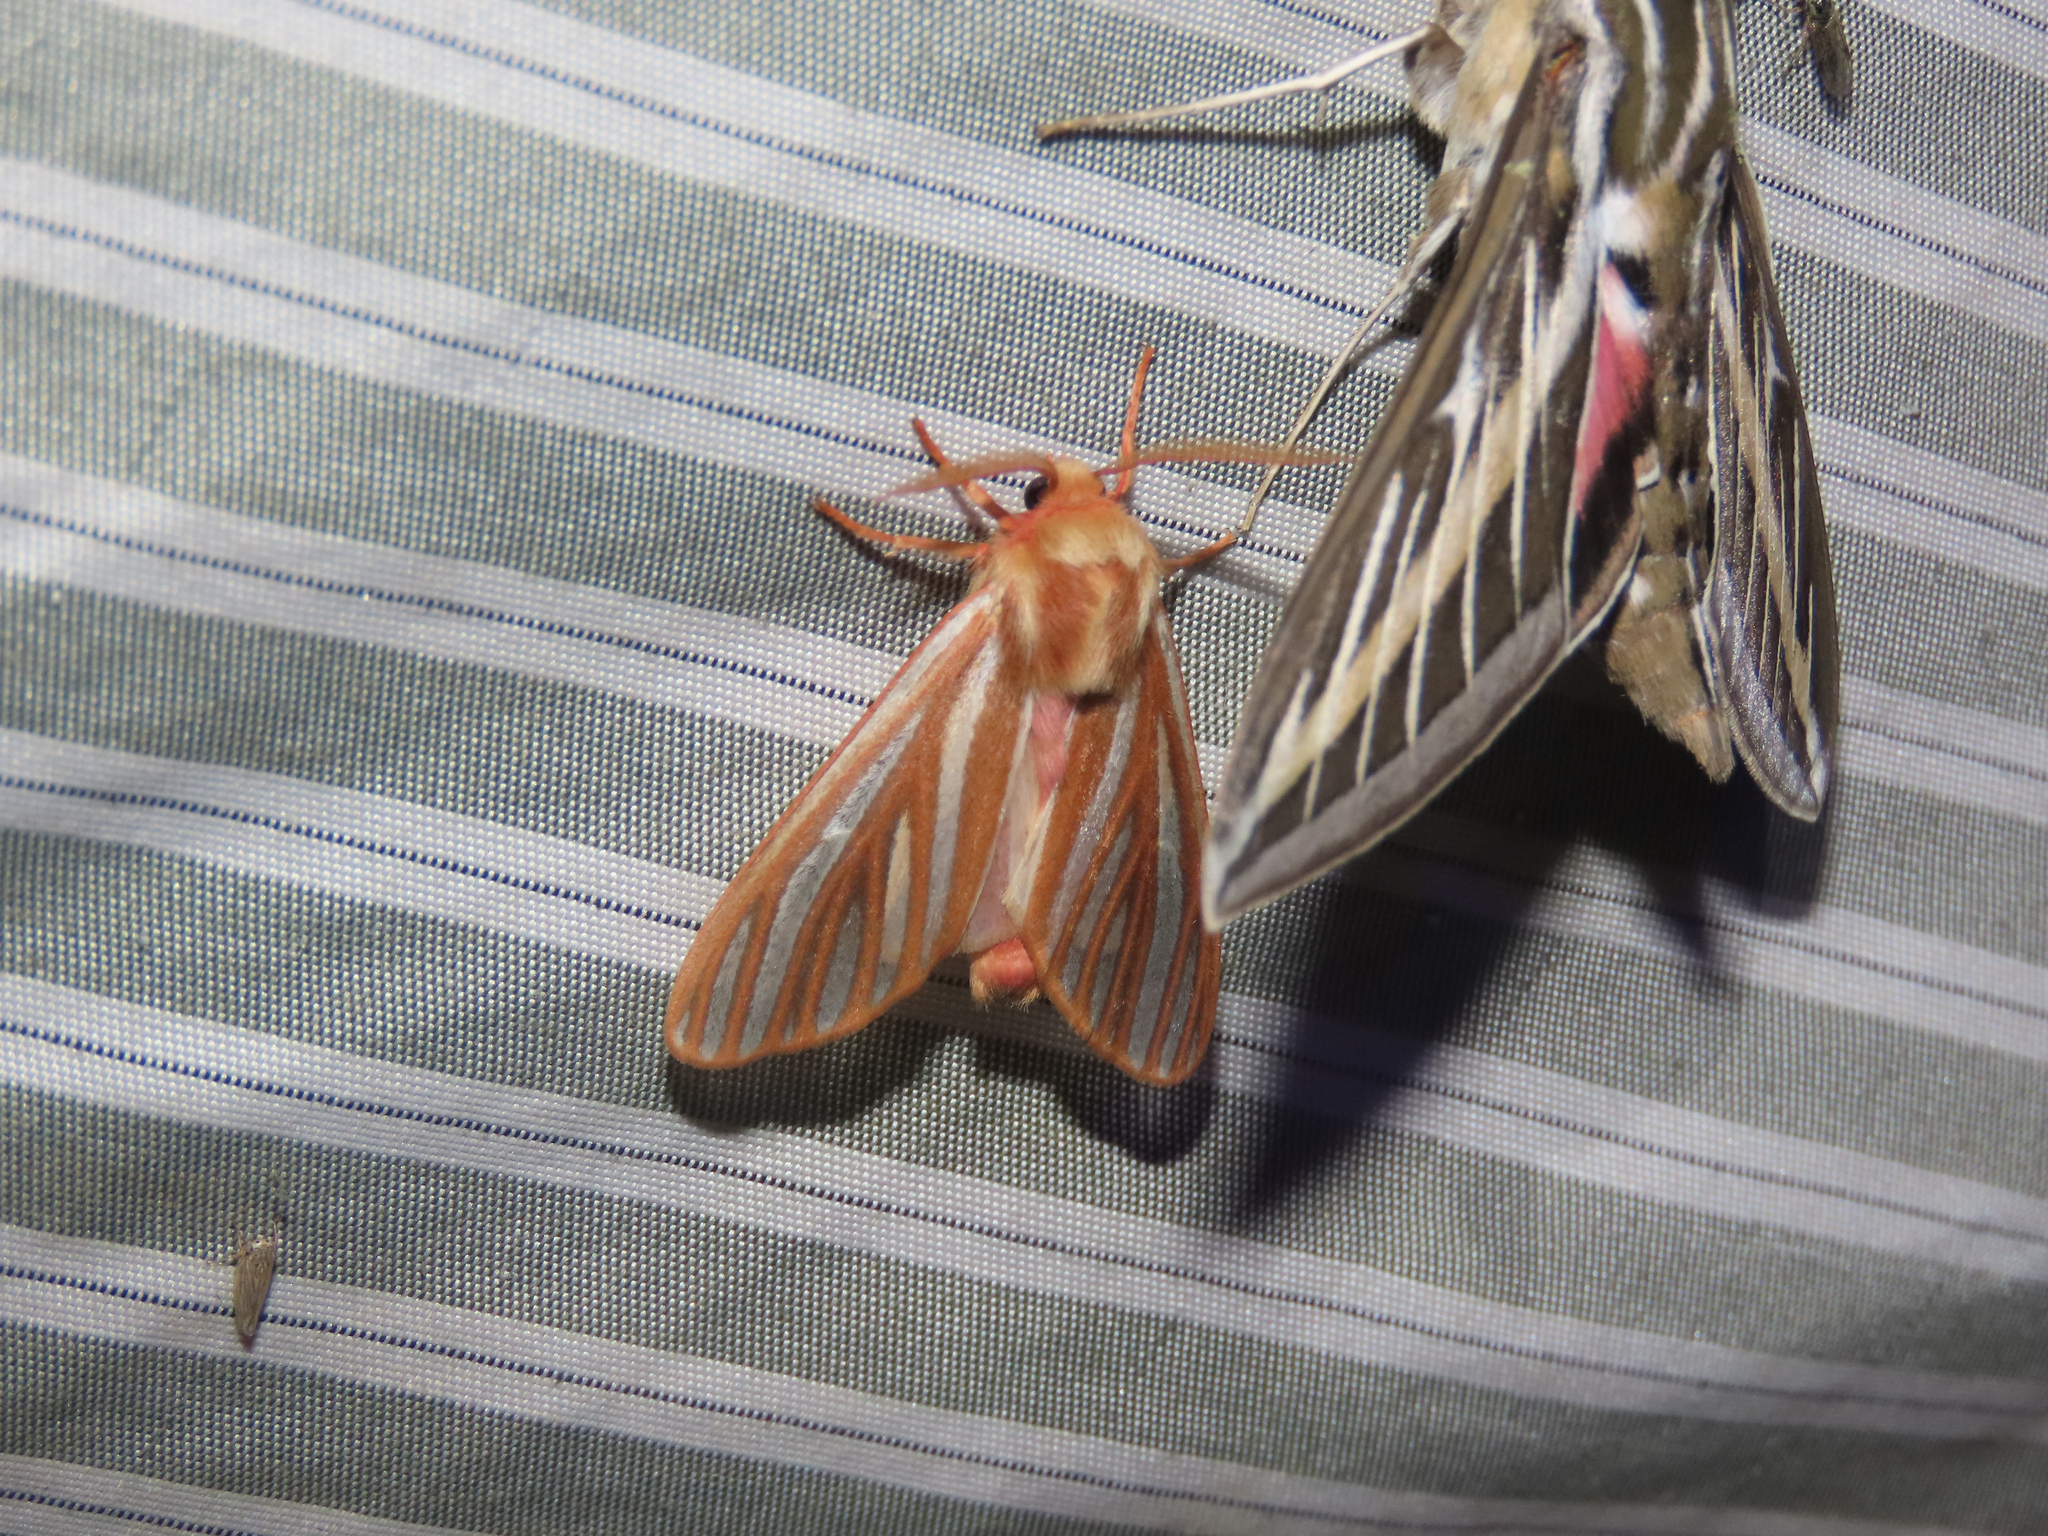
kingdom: Animalia
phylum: Arthropoda
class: Insecta
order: Lepidoptera
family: Erebidae
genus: Hemihyalea
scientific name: Hemihyalea ambigua
